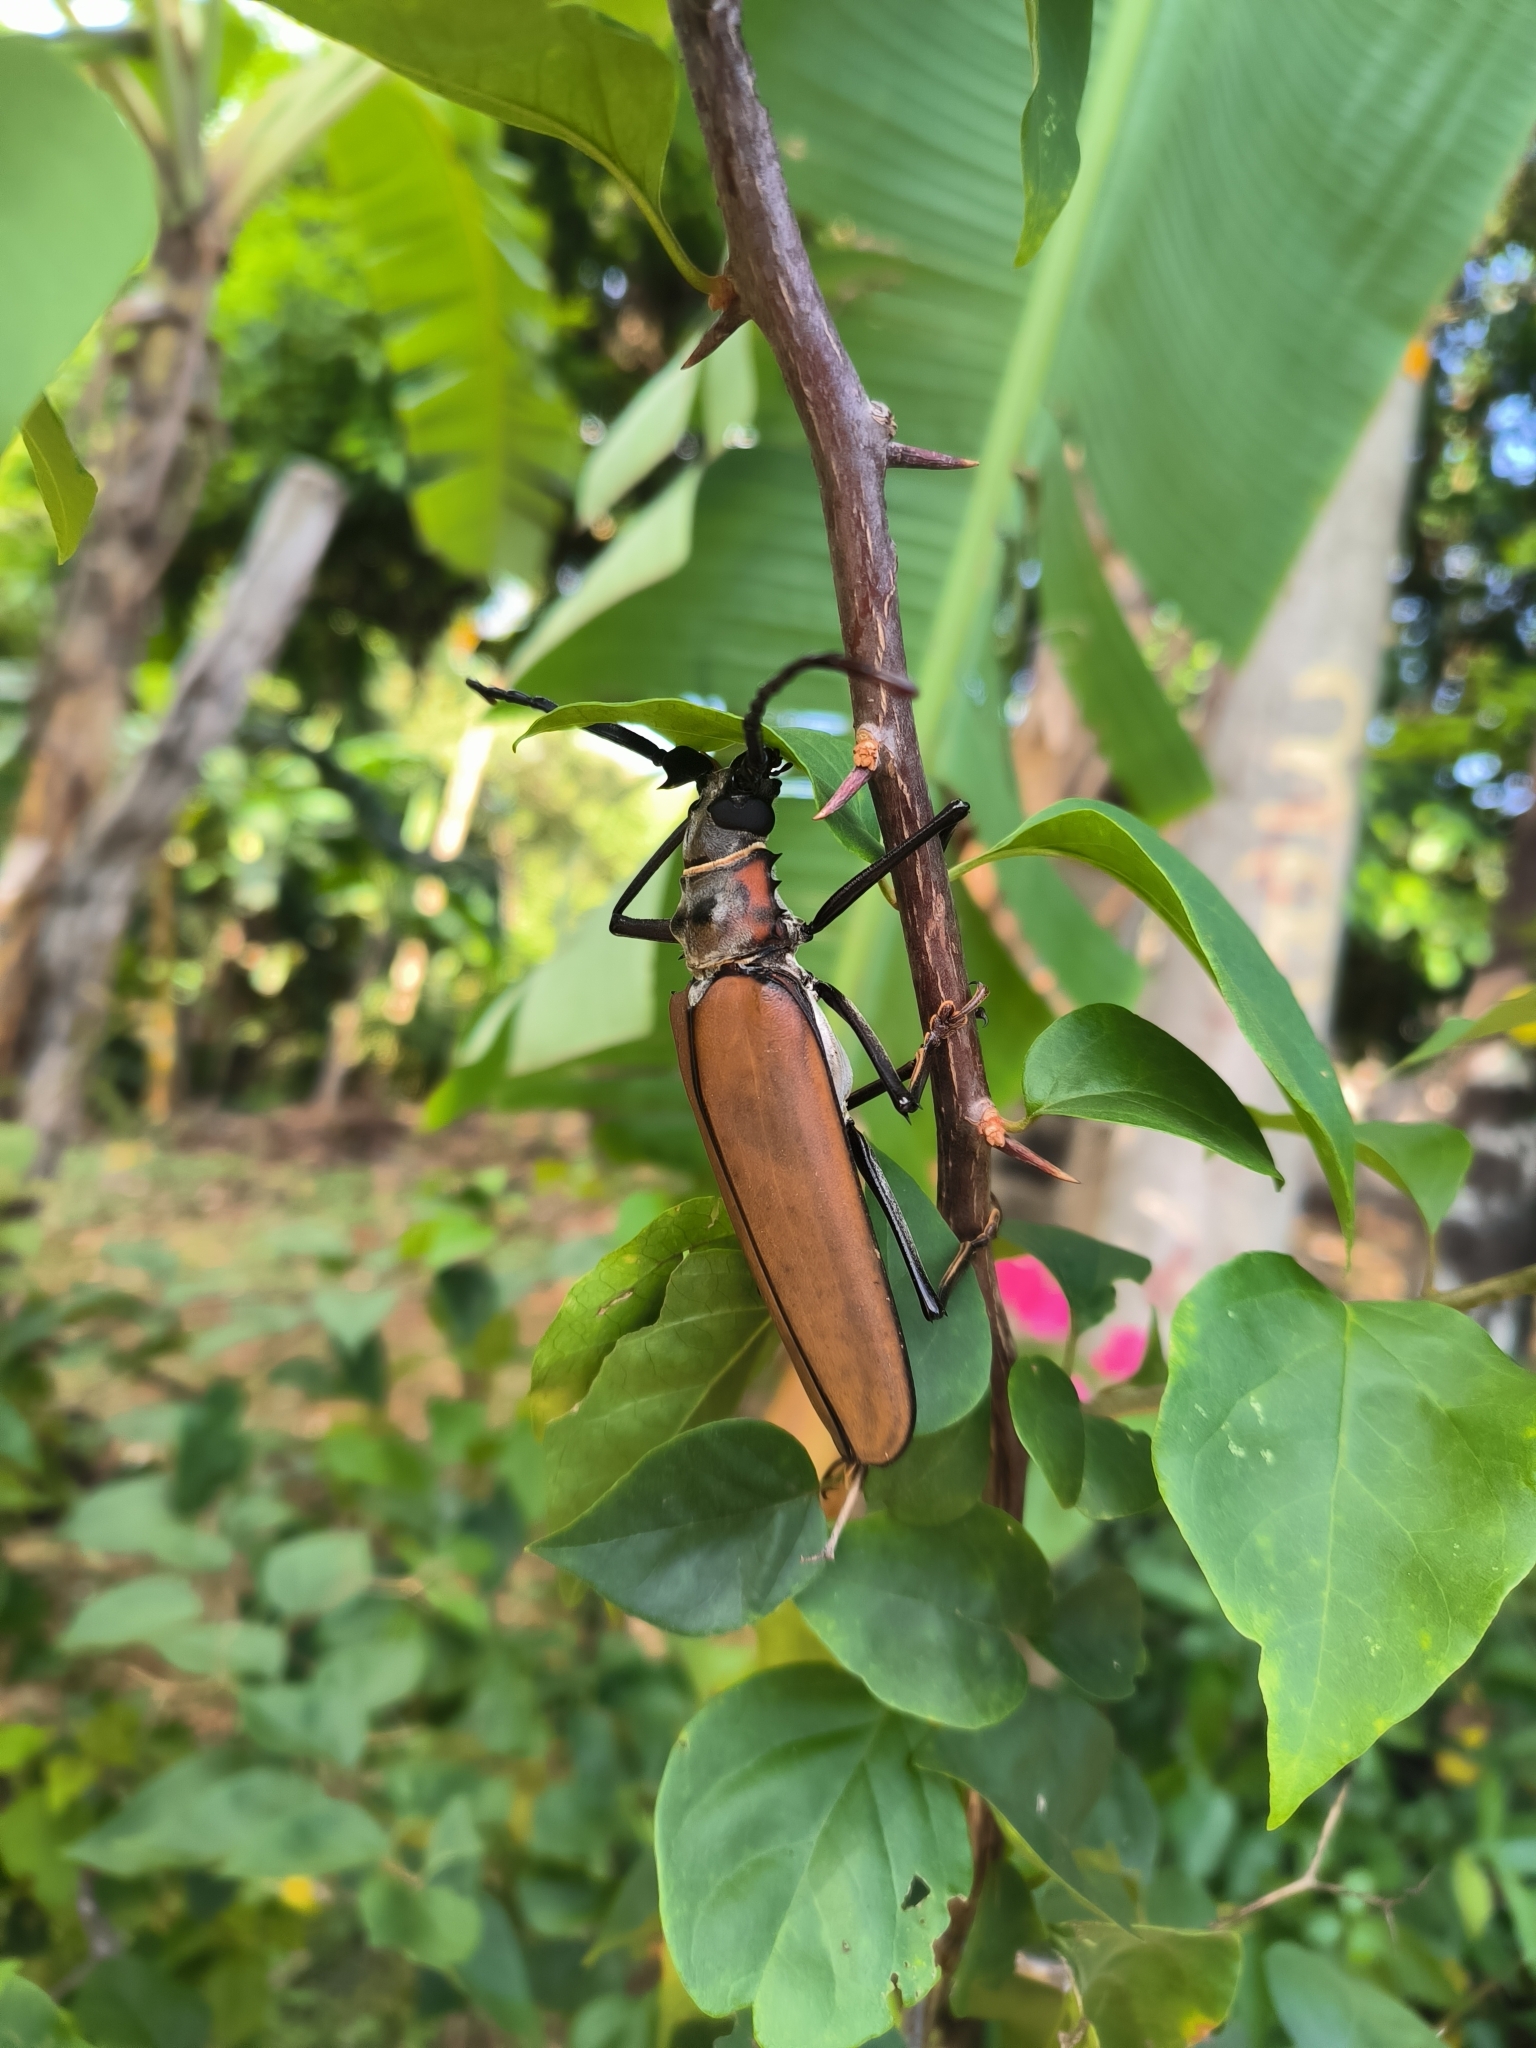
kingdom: Animalia
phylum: Arthropoda
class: Insecta
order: Coleoptera
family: Cerambycidae
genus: Enoplocerus
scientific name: Enoplocerus armillatus
